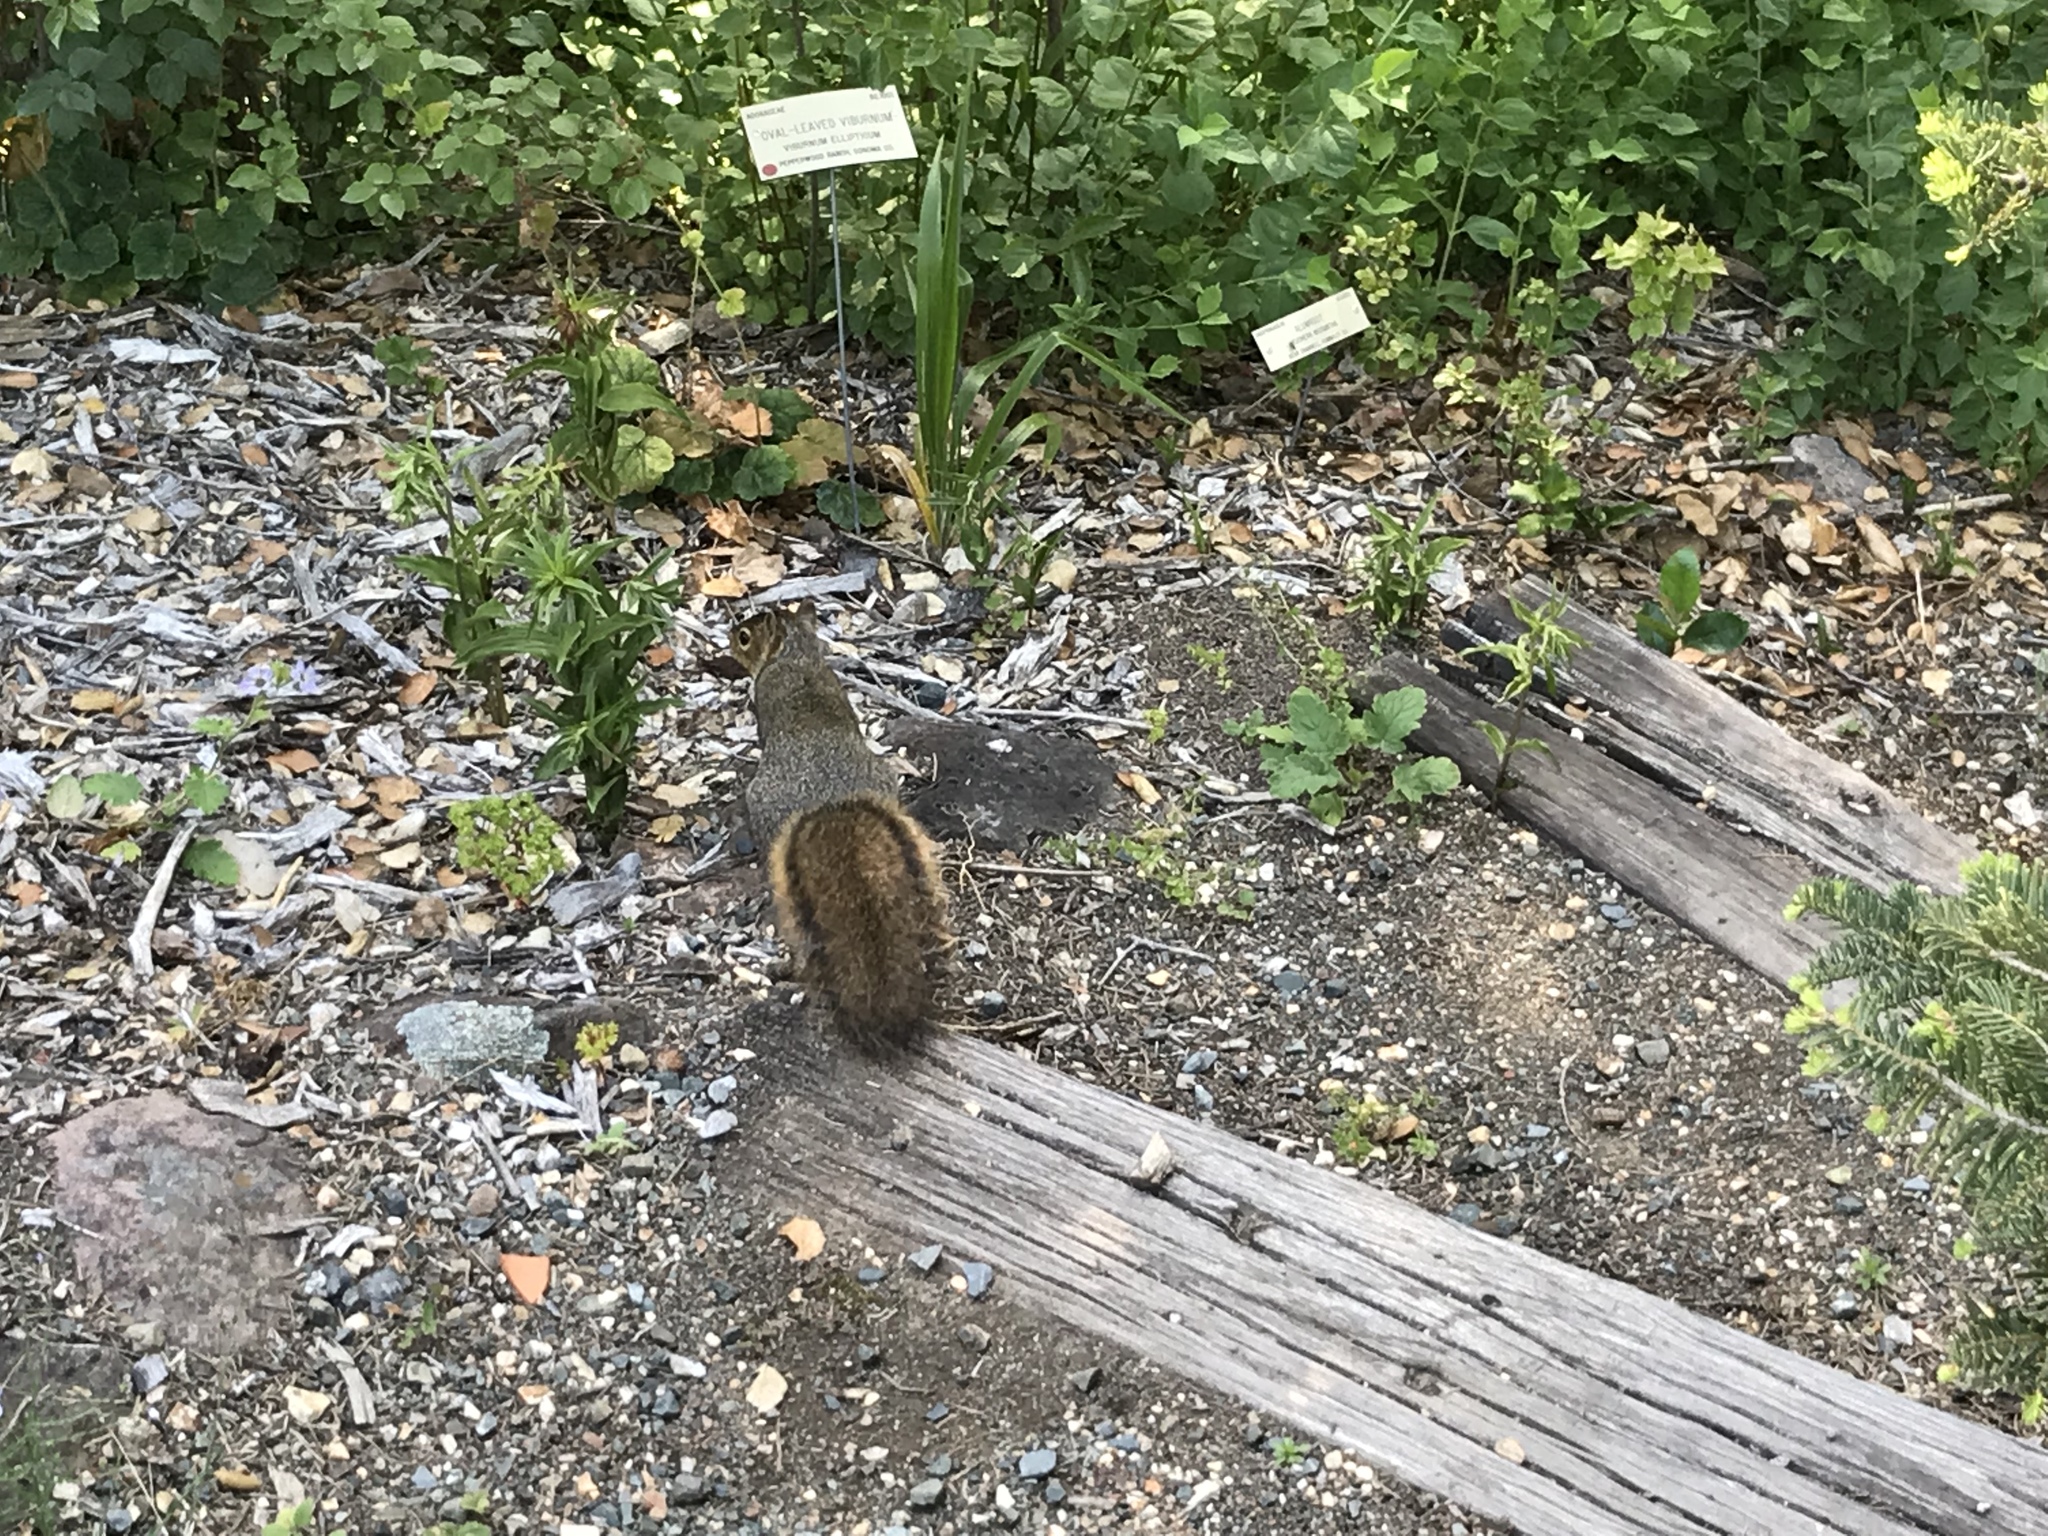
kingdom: Animalia
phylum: Chordata
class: Mammalia
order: Rodentia
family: Sciuridae
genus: Sciurus
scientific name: Sciurus niger
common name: Fox squirrel
